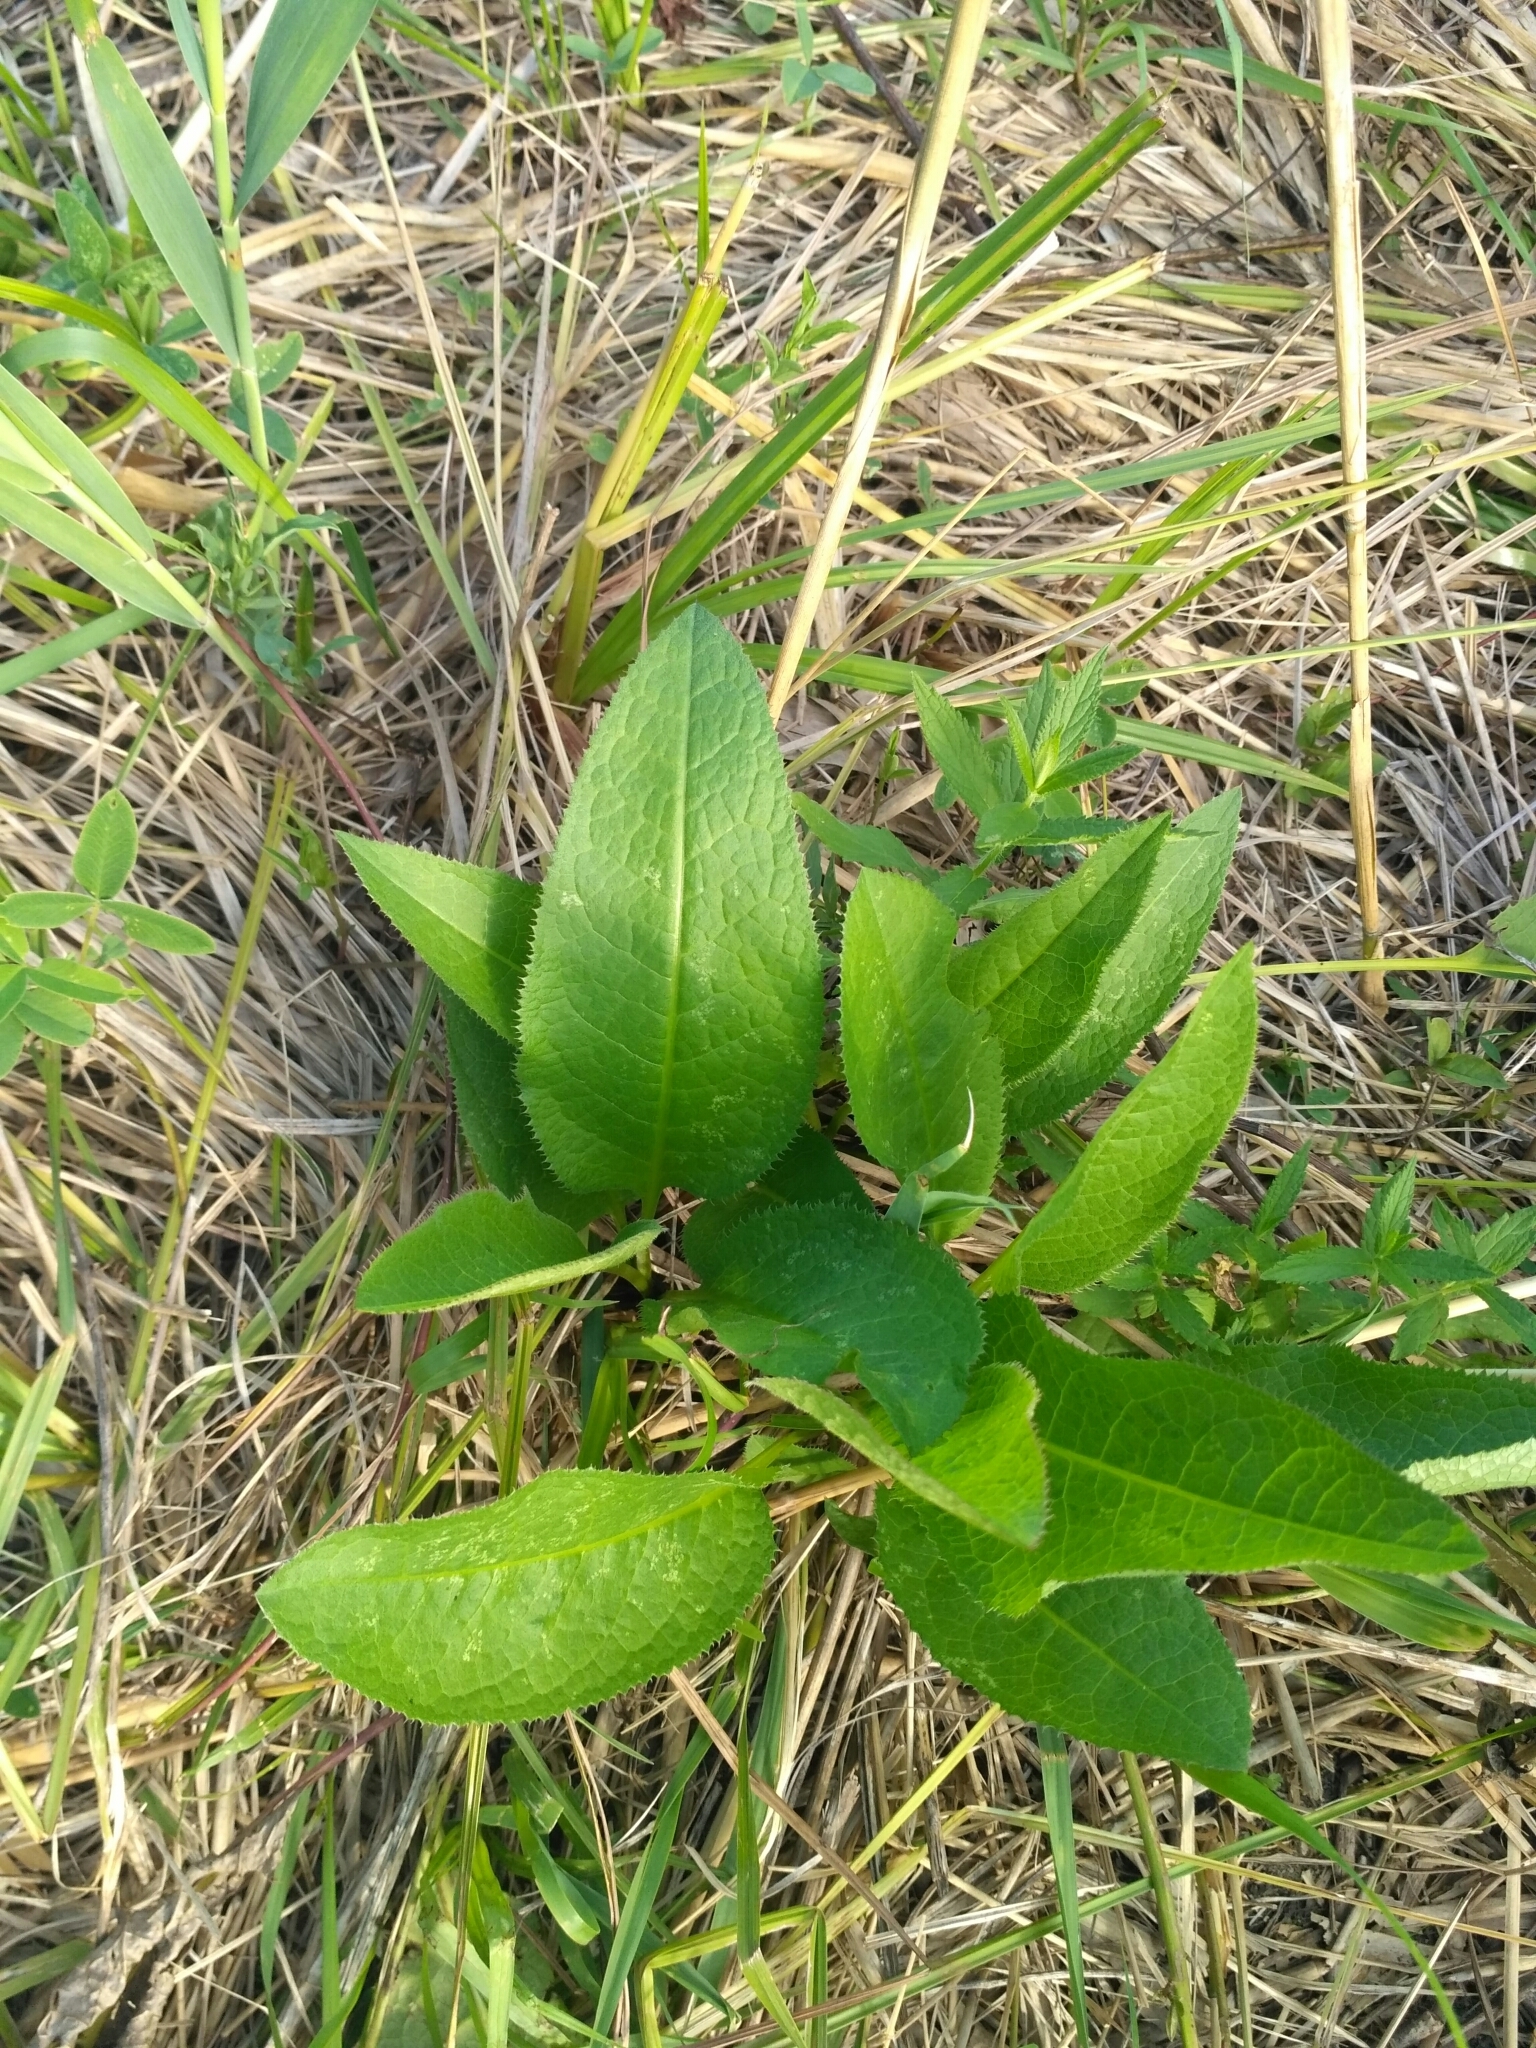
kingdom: Plantae
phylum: Tracheophyta
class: Magnoliopsida
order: Asterales
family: Asteraceae
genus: Cirsium
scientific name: Cirsium canum
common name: Queen anne's thistle
